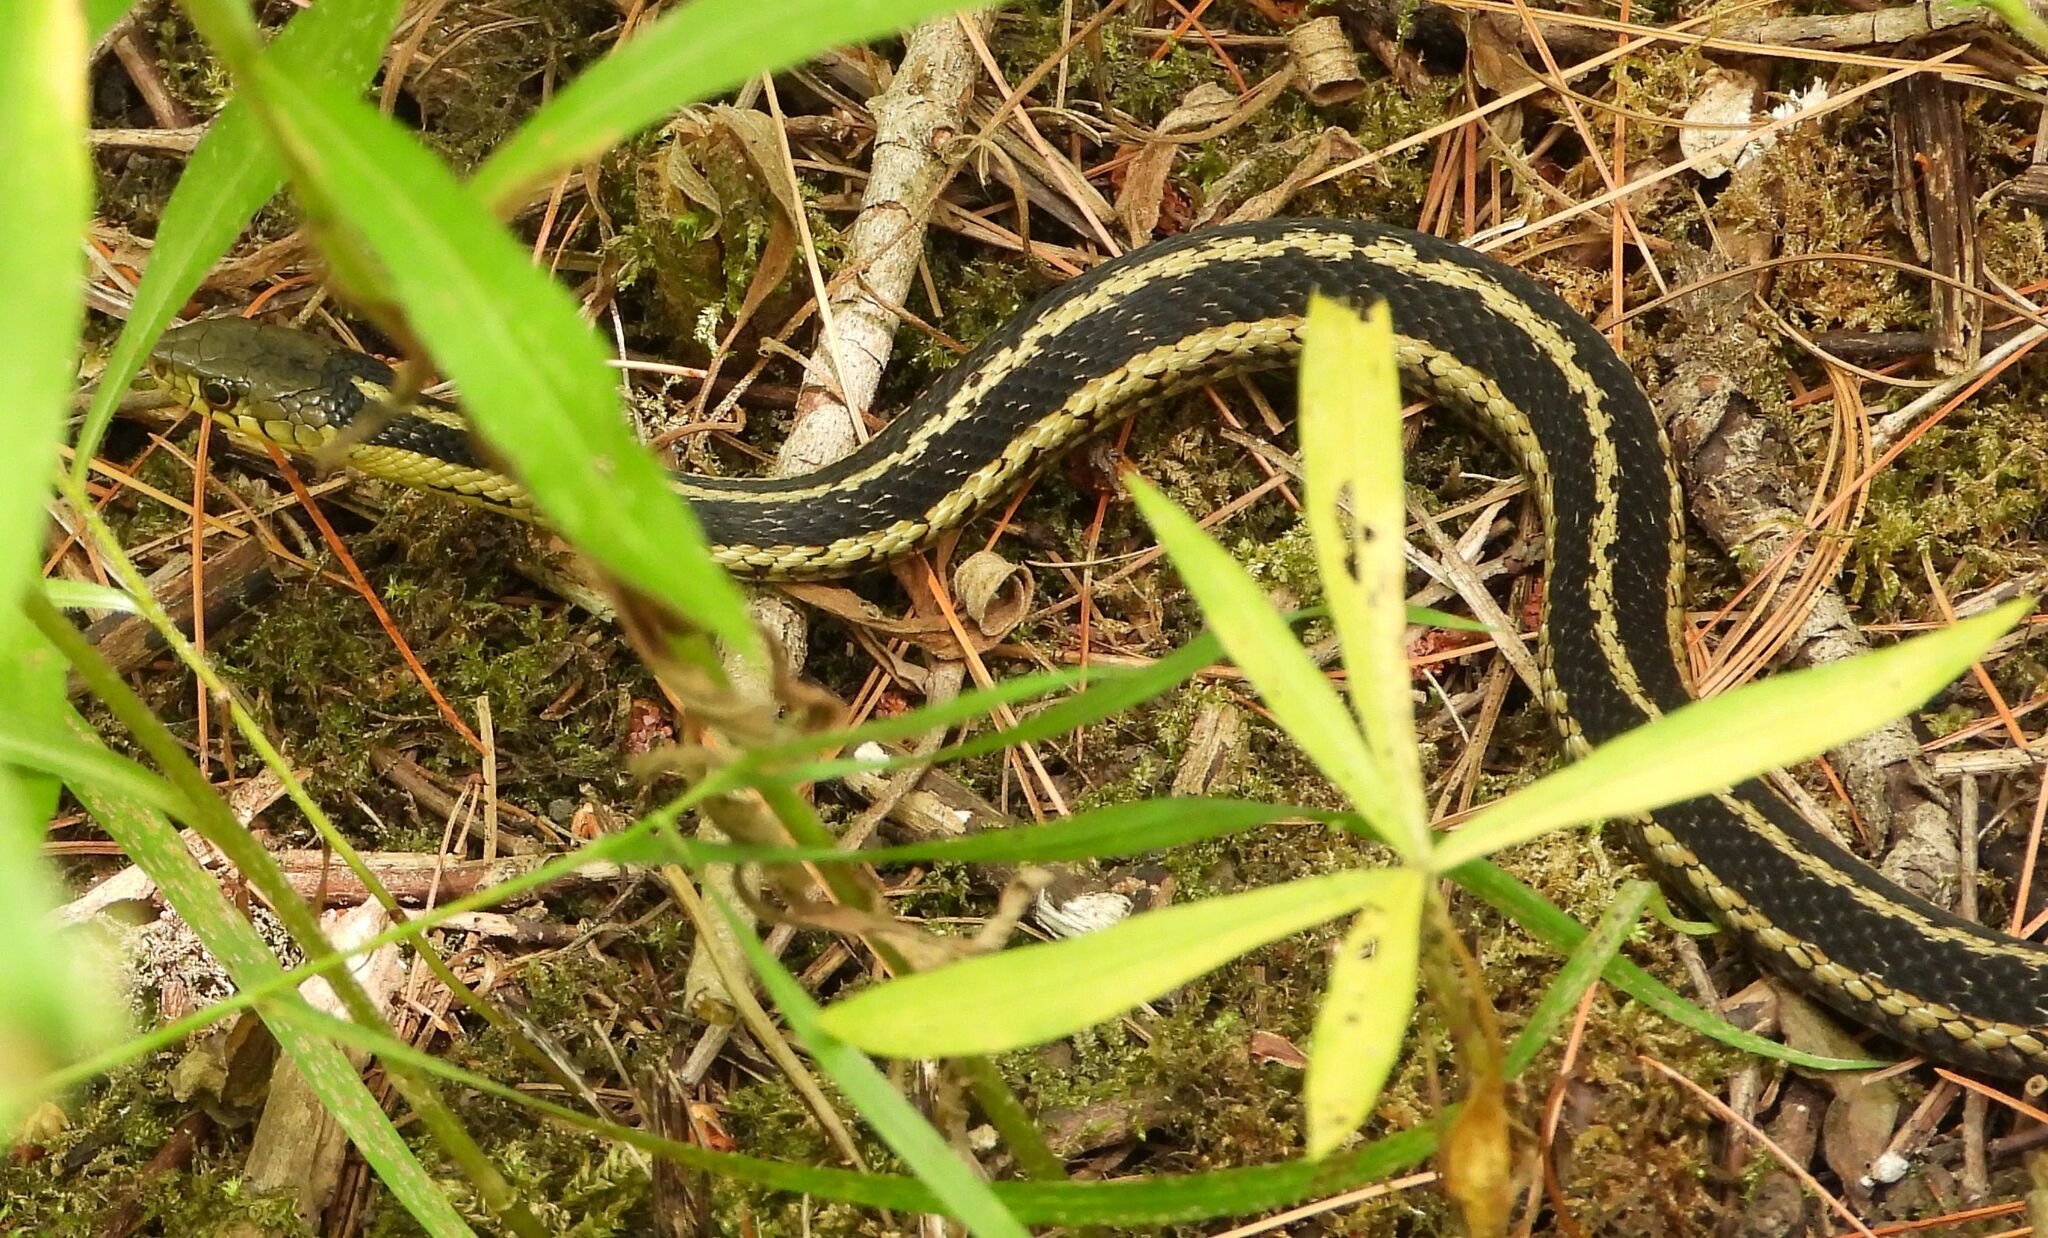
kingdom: Animalia
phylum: Chordata
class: Squamata
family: Colubridae
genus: Thamnophis
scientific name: Thamnophis sirtalis
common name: Common garter snake
